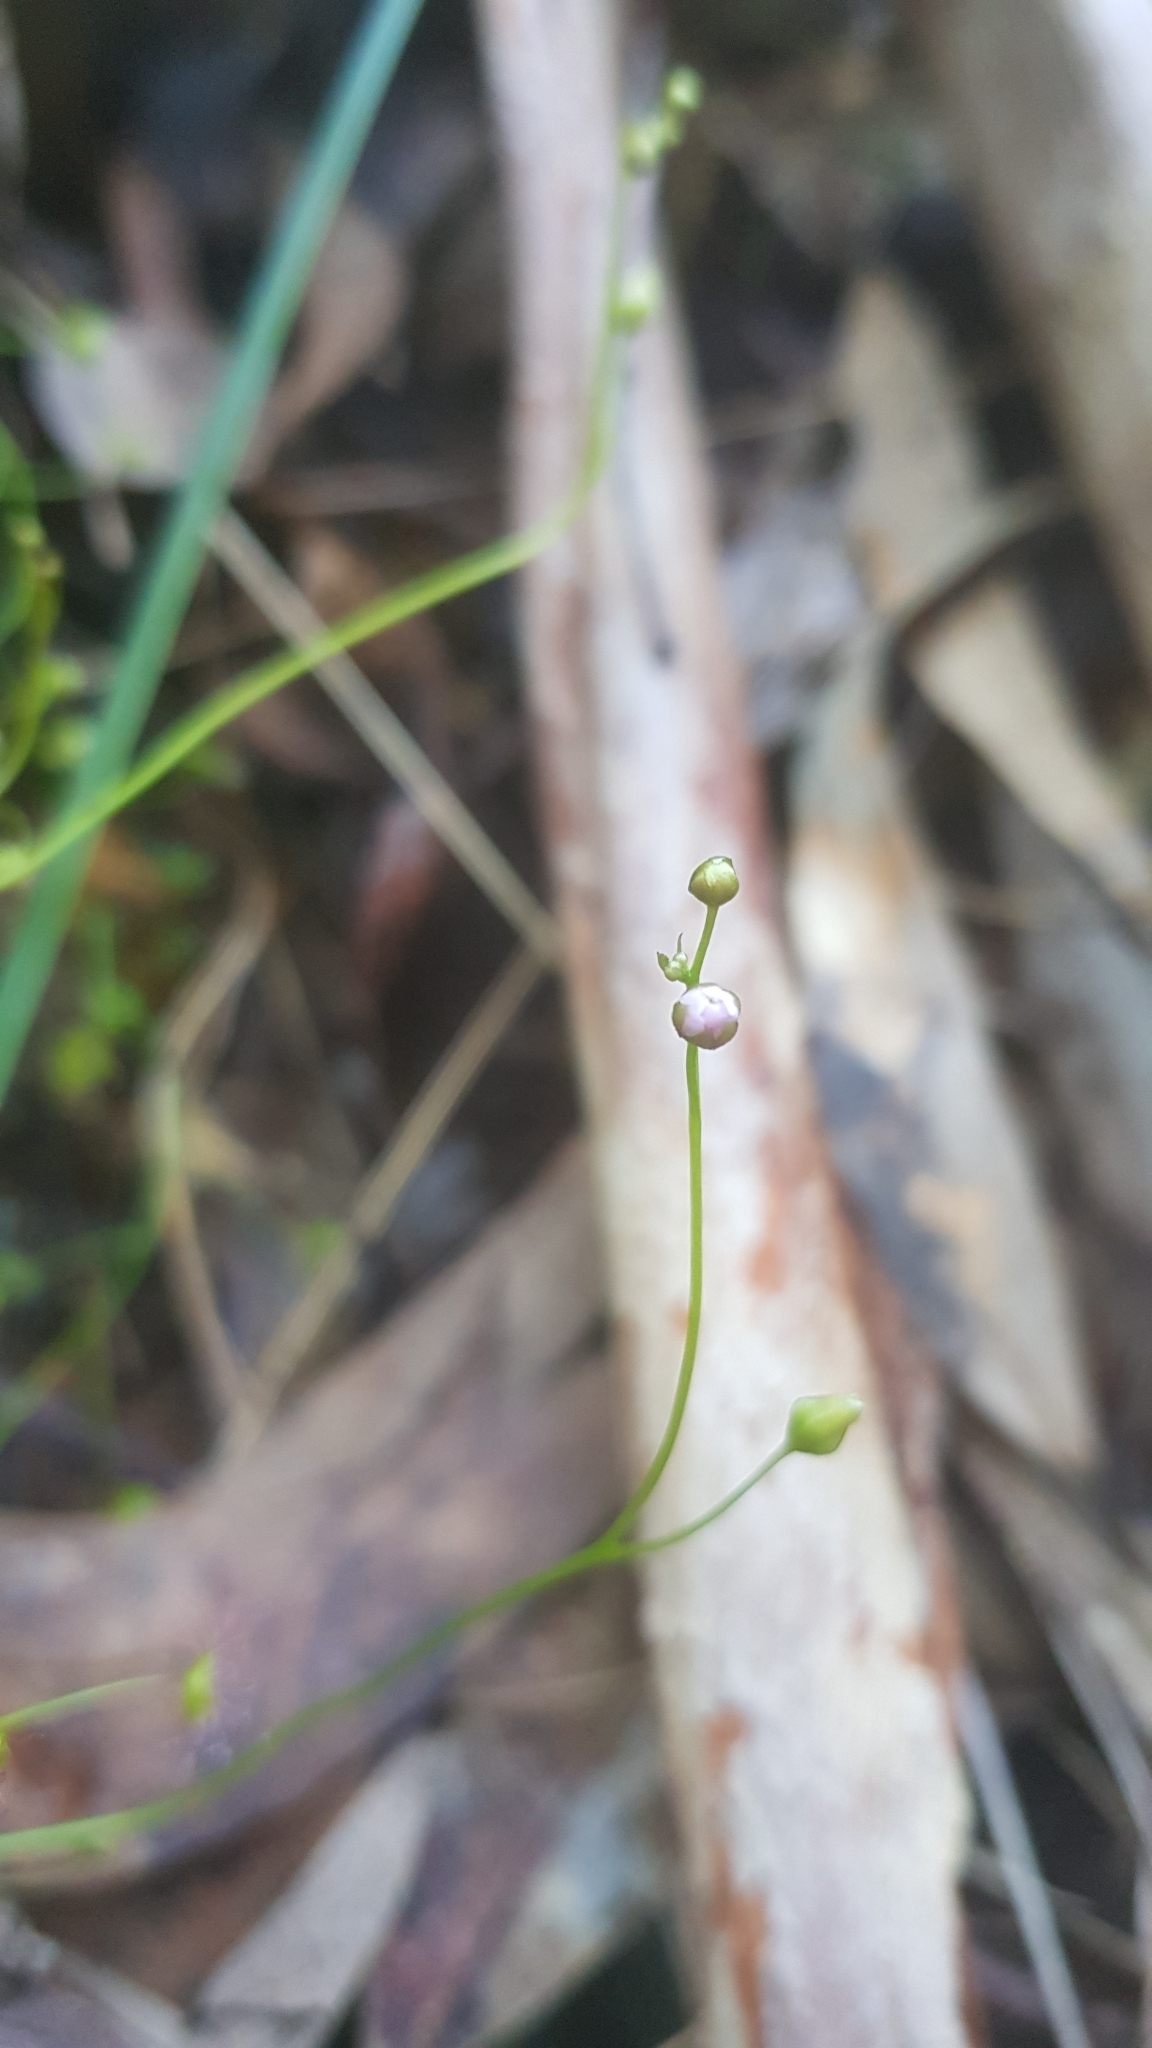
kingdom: Plantae
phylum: Tracheophyta
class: Magnoliopsida
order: Caryophyllales
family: Droseraceae
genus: Drosera
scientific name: Drosera peltata
